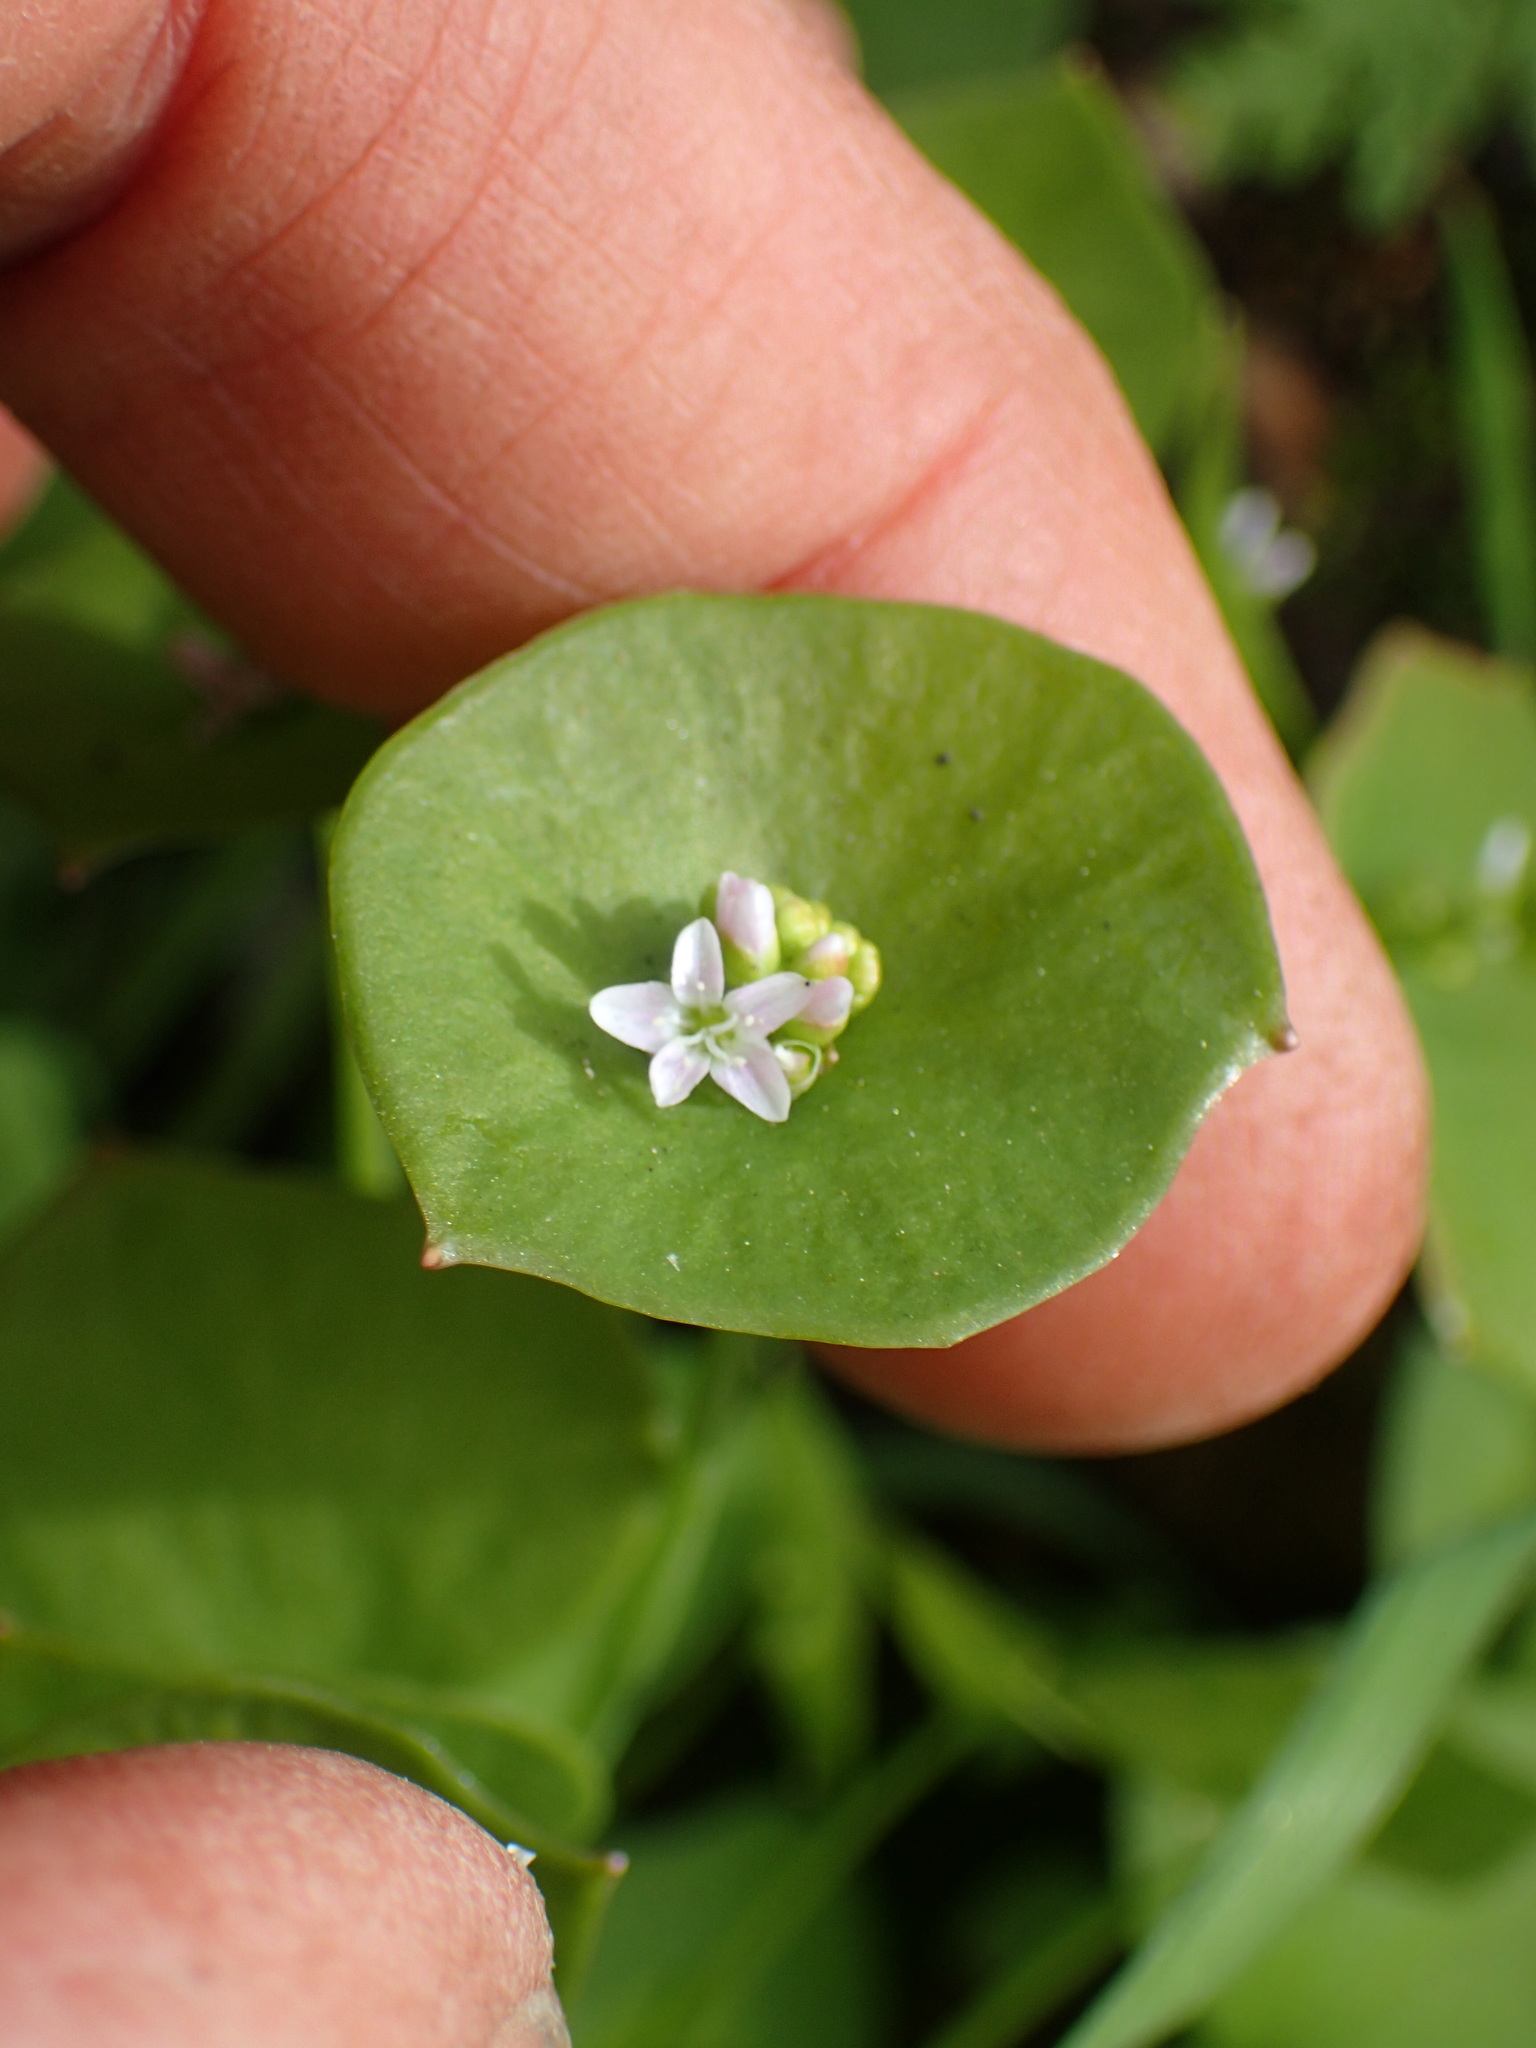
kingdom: Plantae
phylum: Tracheophyta
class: Magnoliopsida
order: Caryophyllales
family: Montiaceae
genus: Claytonia
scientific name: Claytonia perfoliata
